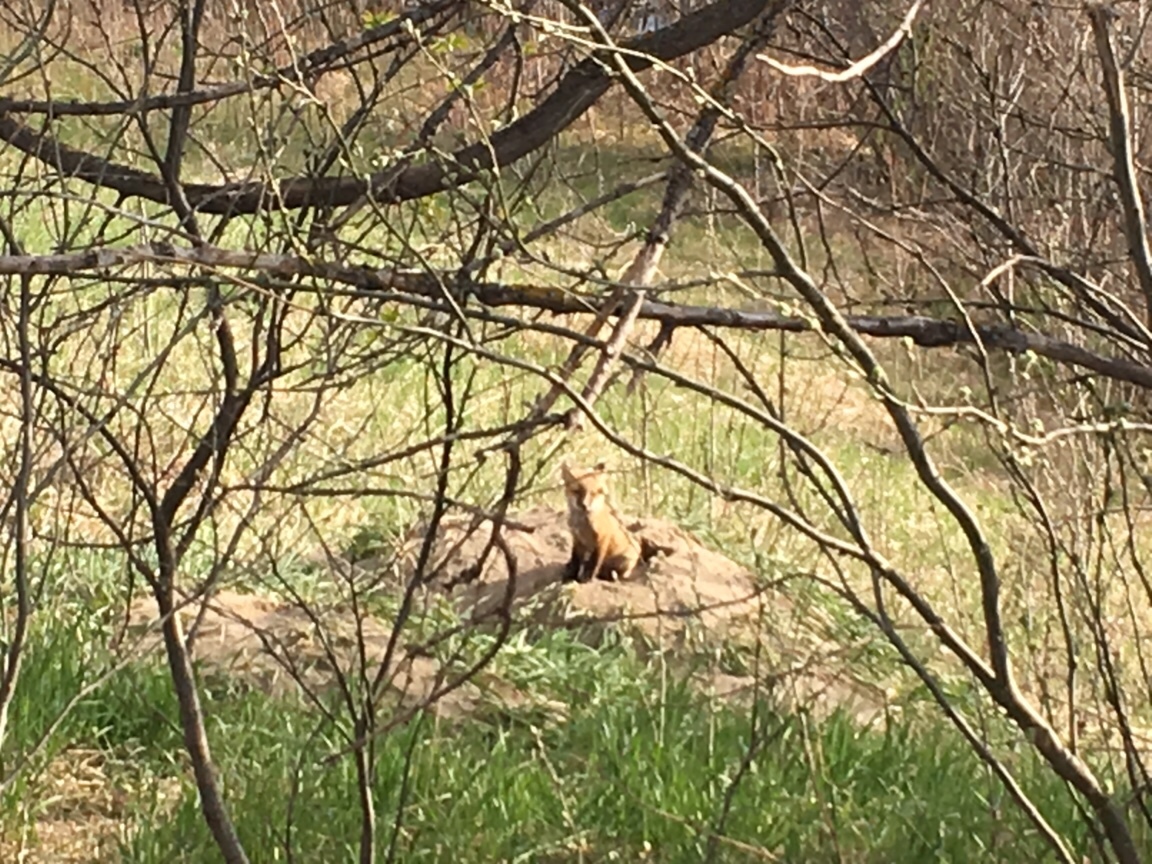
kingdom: Animalia
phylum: Chordata
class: Mammalia
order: Carnivora
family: Canidae
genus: Vulpes
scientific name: Vulpes vulpes
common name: Red fox
